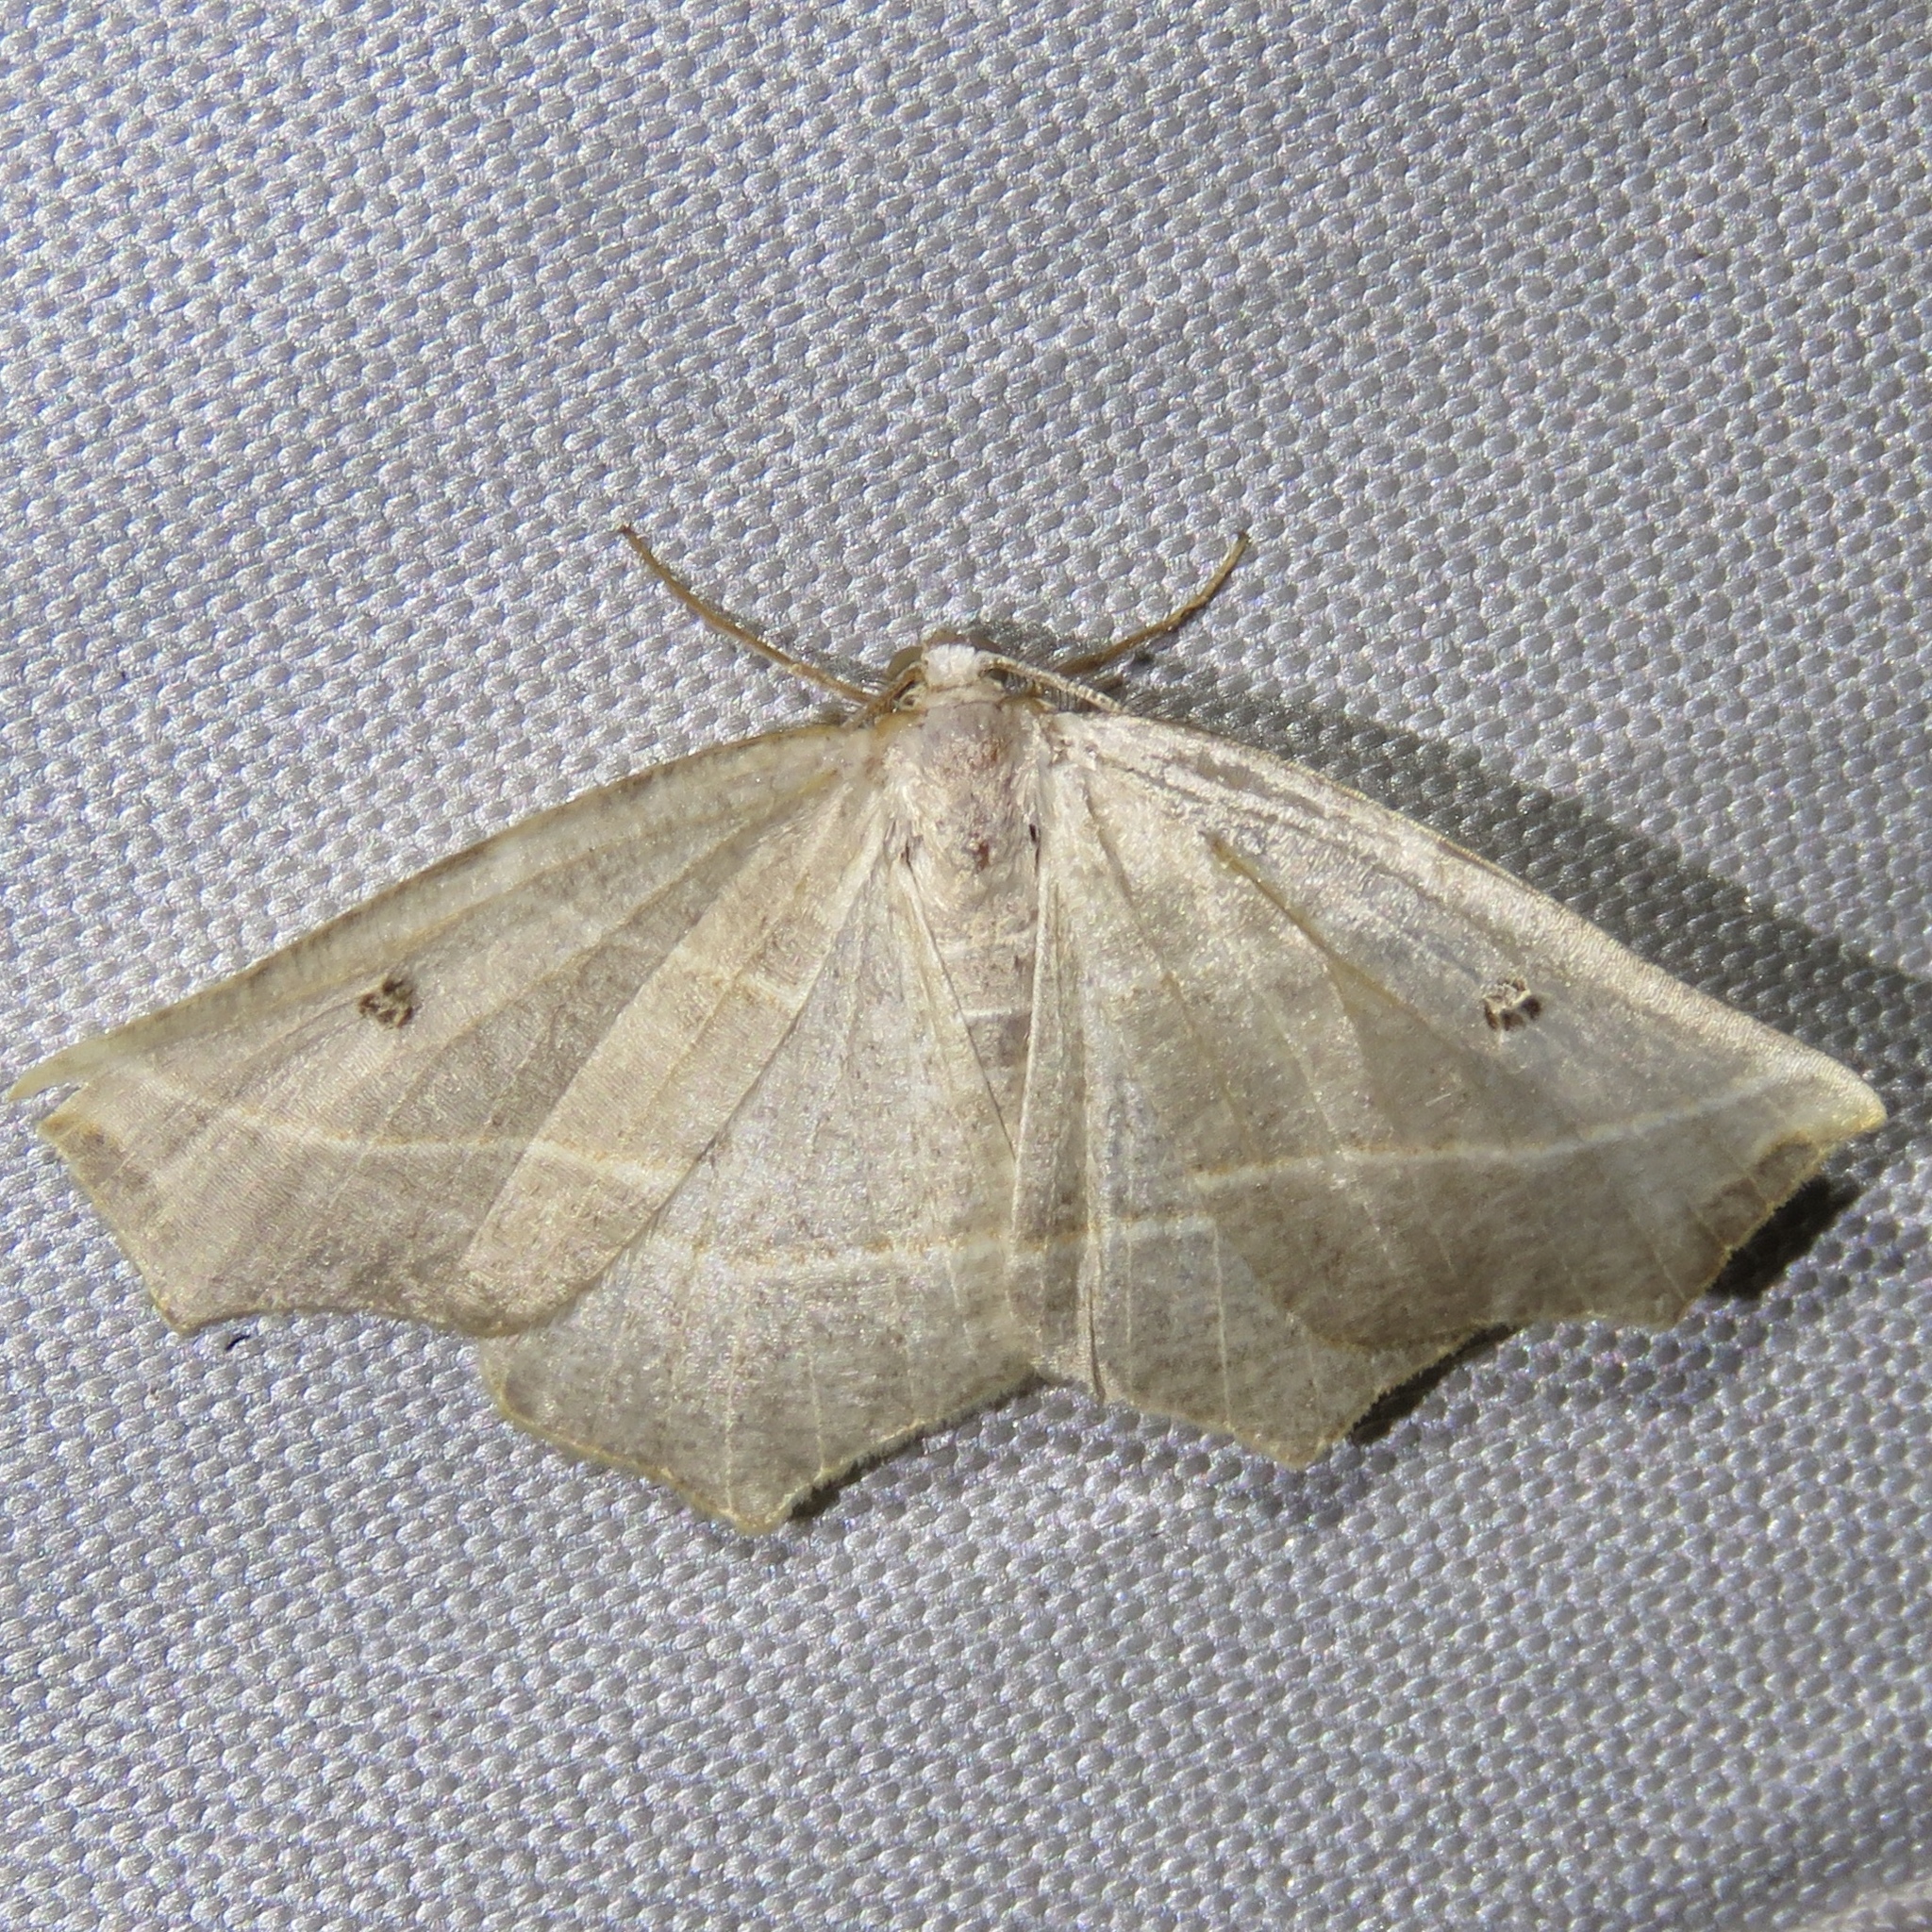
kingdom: Animalia
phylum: Arthropoda
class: Insecta
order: Lepidoptera
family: Geometridae
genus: Metanema
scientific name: Metanema inatomaria
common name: Pale metanema
